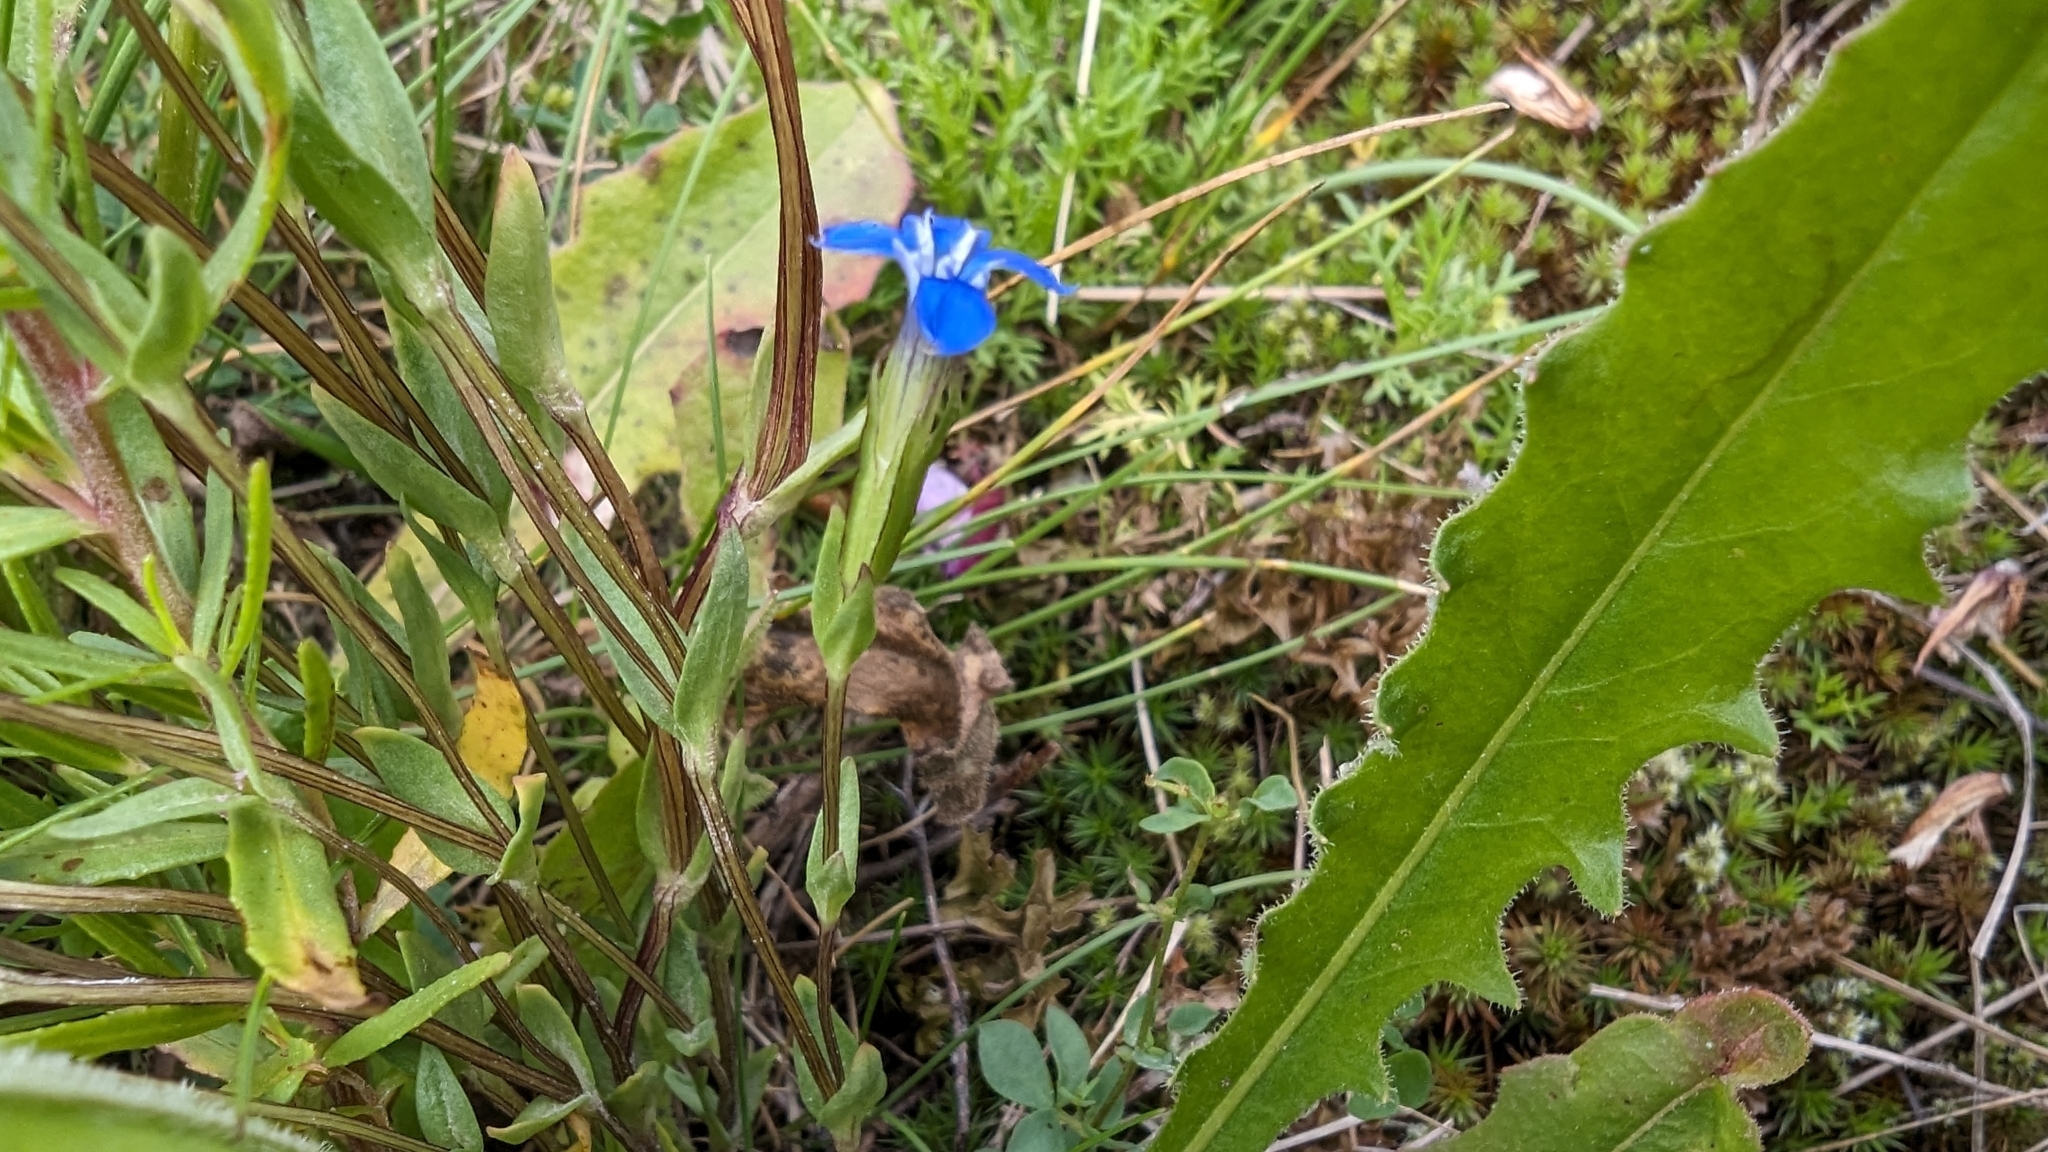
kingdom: Plantae
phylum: Tracheophyta
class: Magnoliopsida
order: Gentianales
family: Gentianaceae
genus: Gentiana
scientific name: Gentiana nivalis
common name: Alpine gentian
